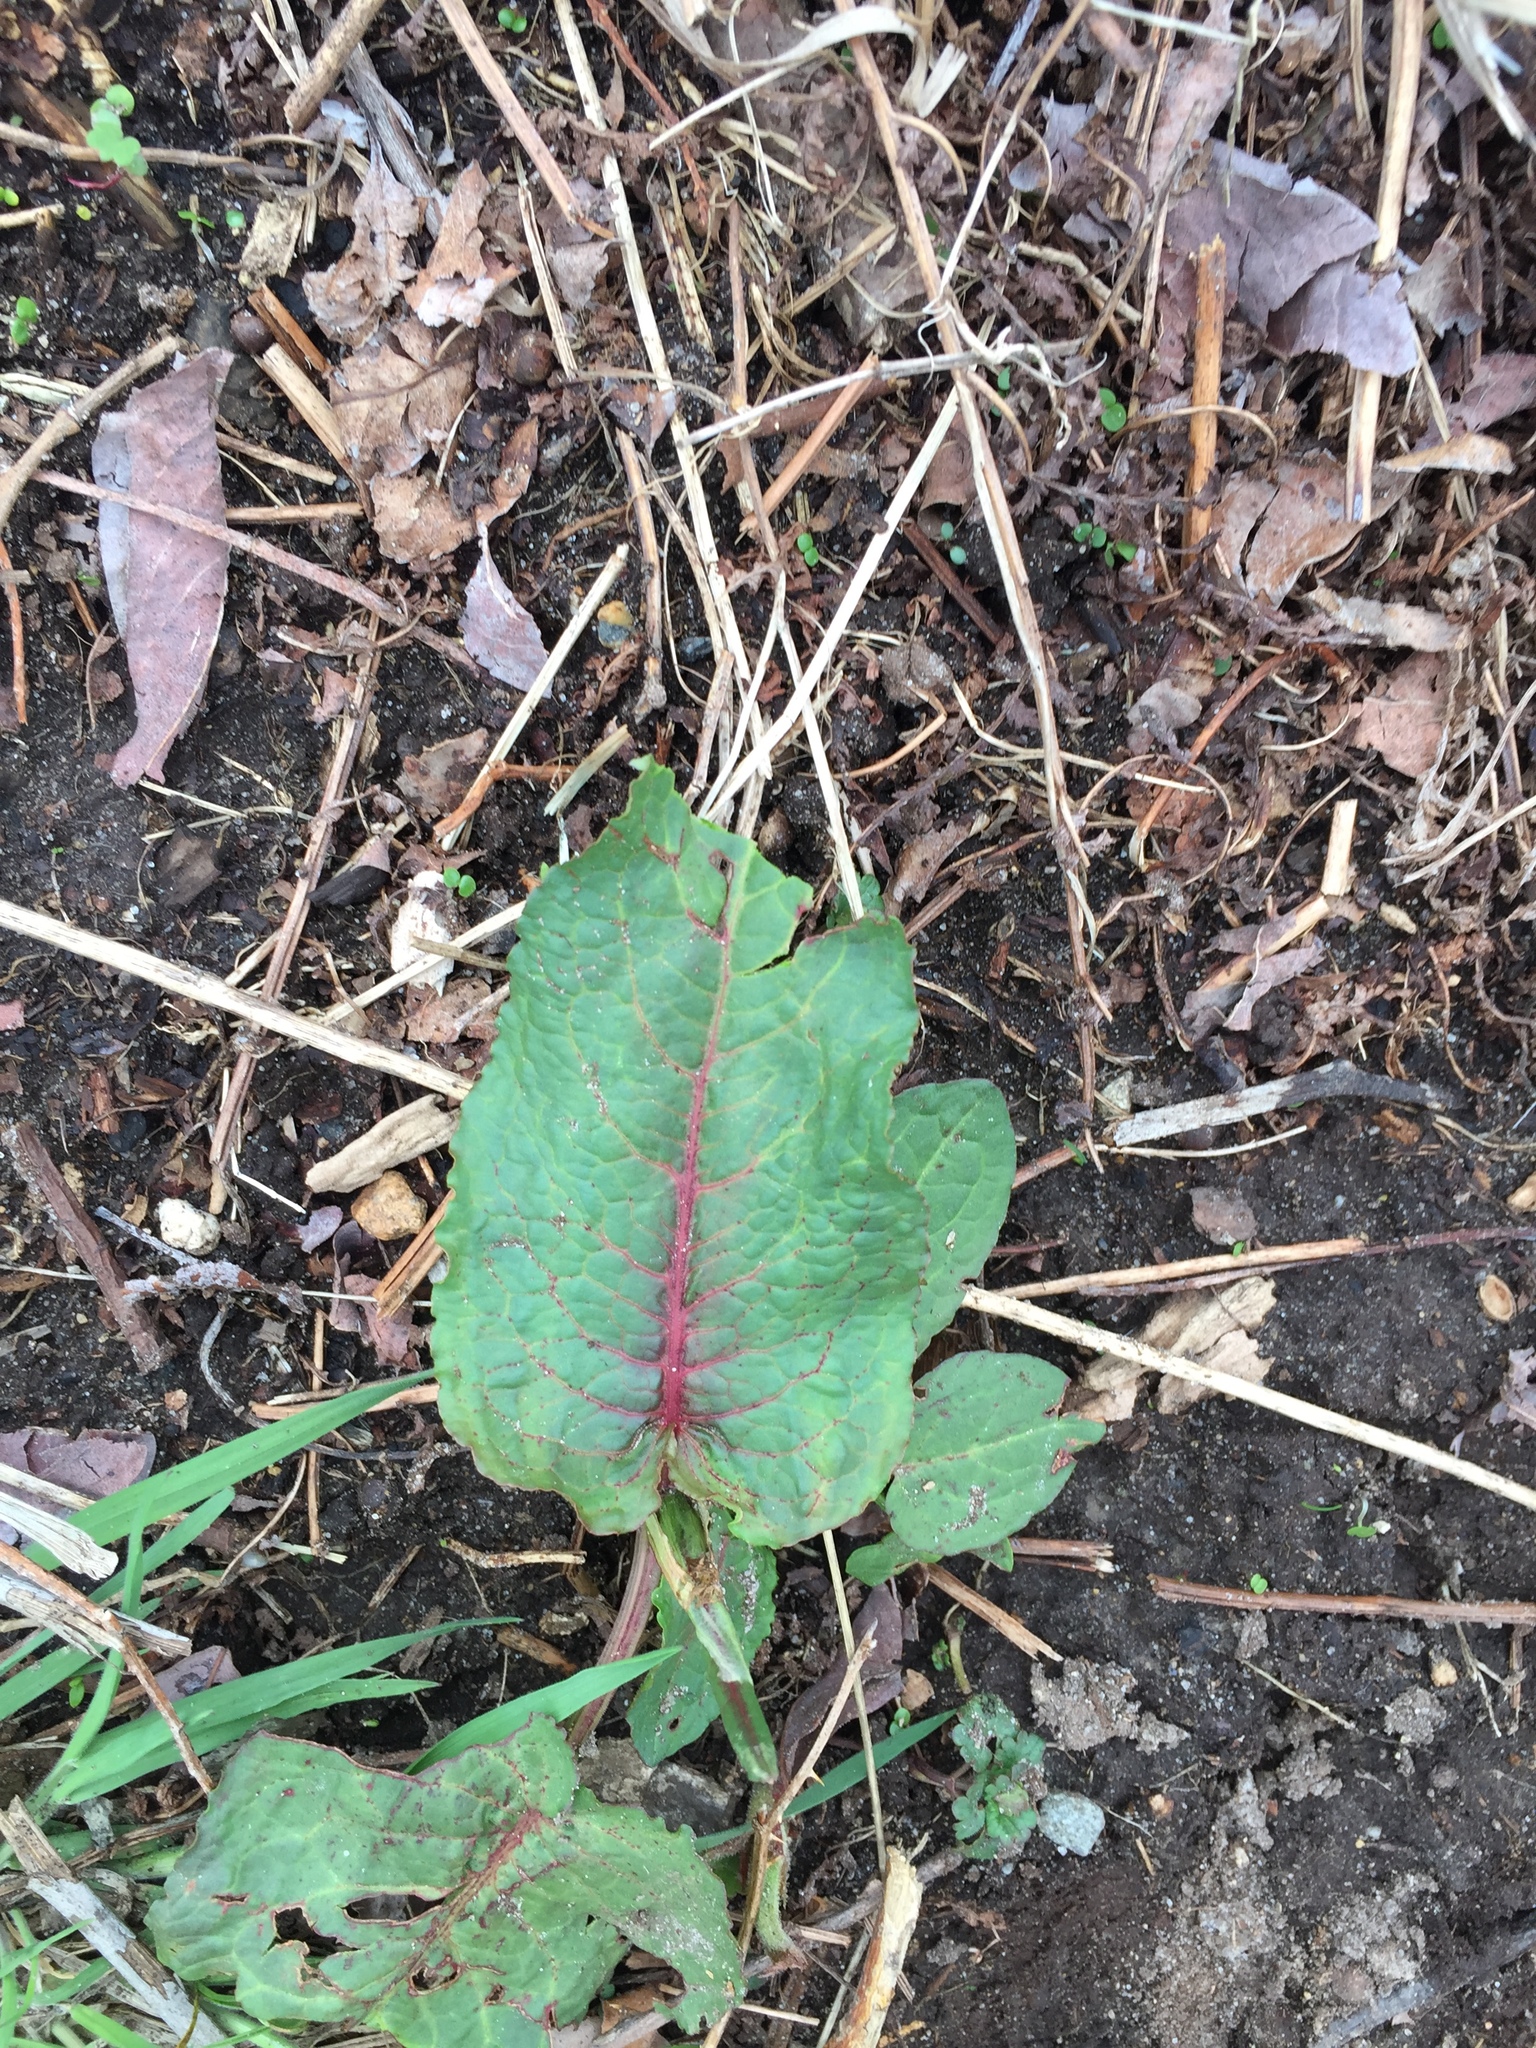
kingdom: Plantae
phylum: Tracheophyta
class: Magnoliopsida
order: Caryophyllales
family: Polygonaceae
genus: Rumex
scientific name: Rumex obtusifolius
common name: Bitter dock
